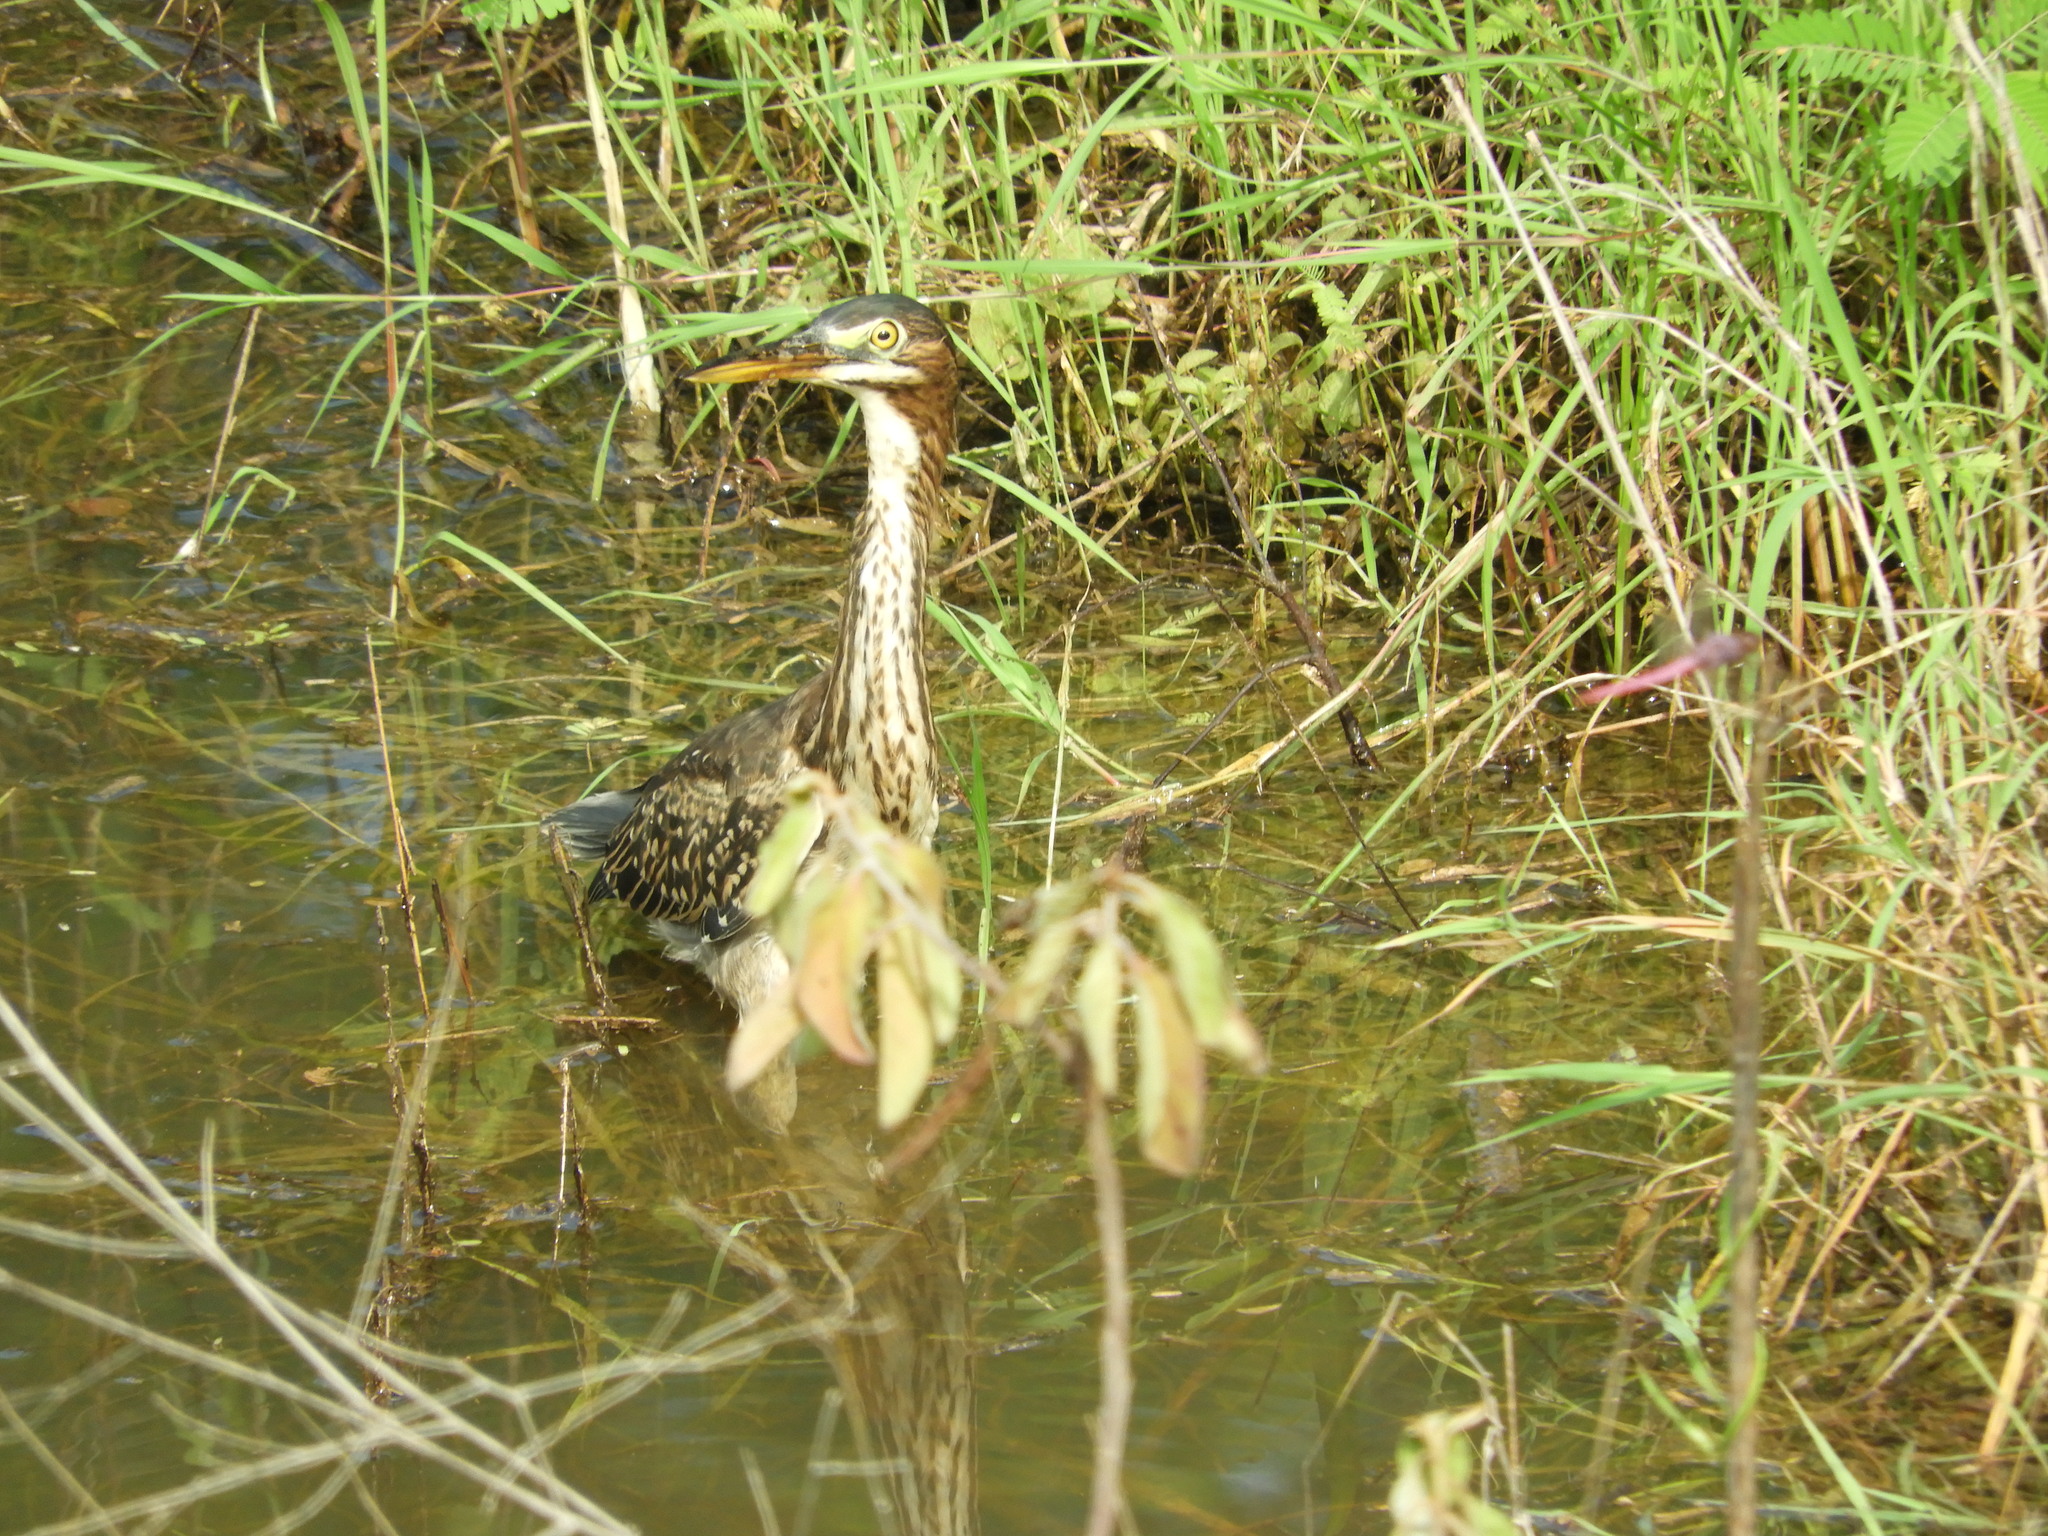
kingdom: Animalia
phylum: Chordata
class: Aves
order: Pelecaniformes
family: Ardeidae
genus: Butorides
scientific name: Butorides virescens
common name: Green heron
